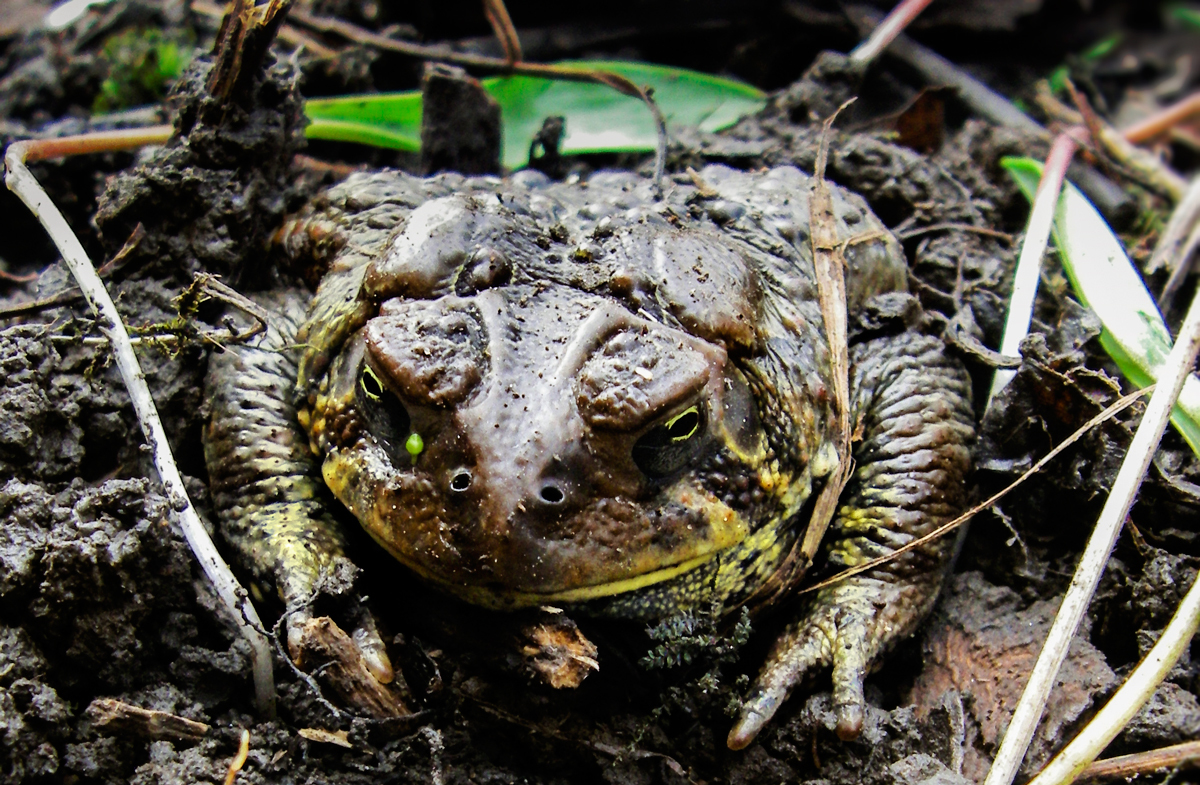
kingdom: Animalia
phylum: Chordata
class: Amphibia
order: Anura
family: Bufonidae
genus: Anaxyrus
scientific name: Anaxyrus americanus
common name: American toad
